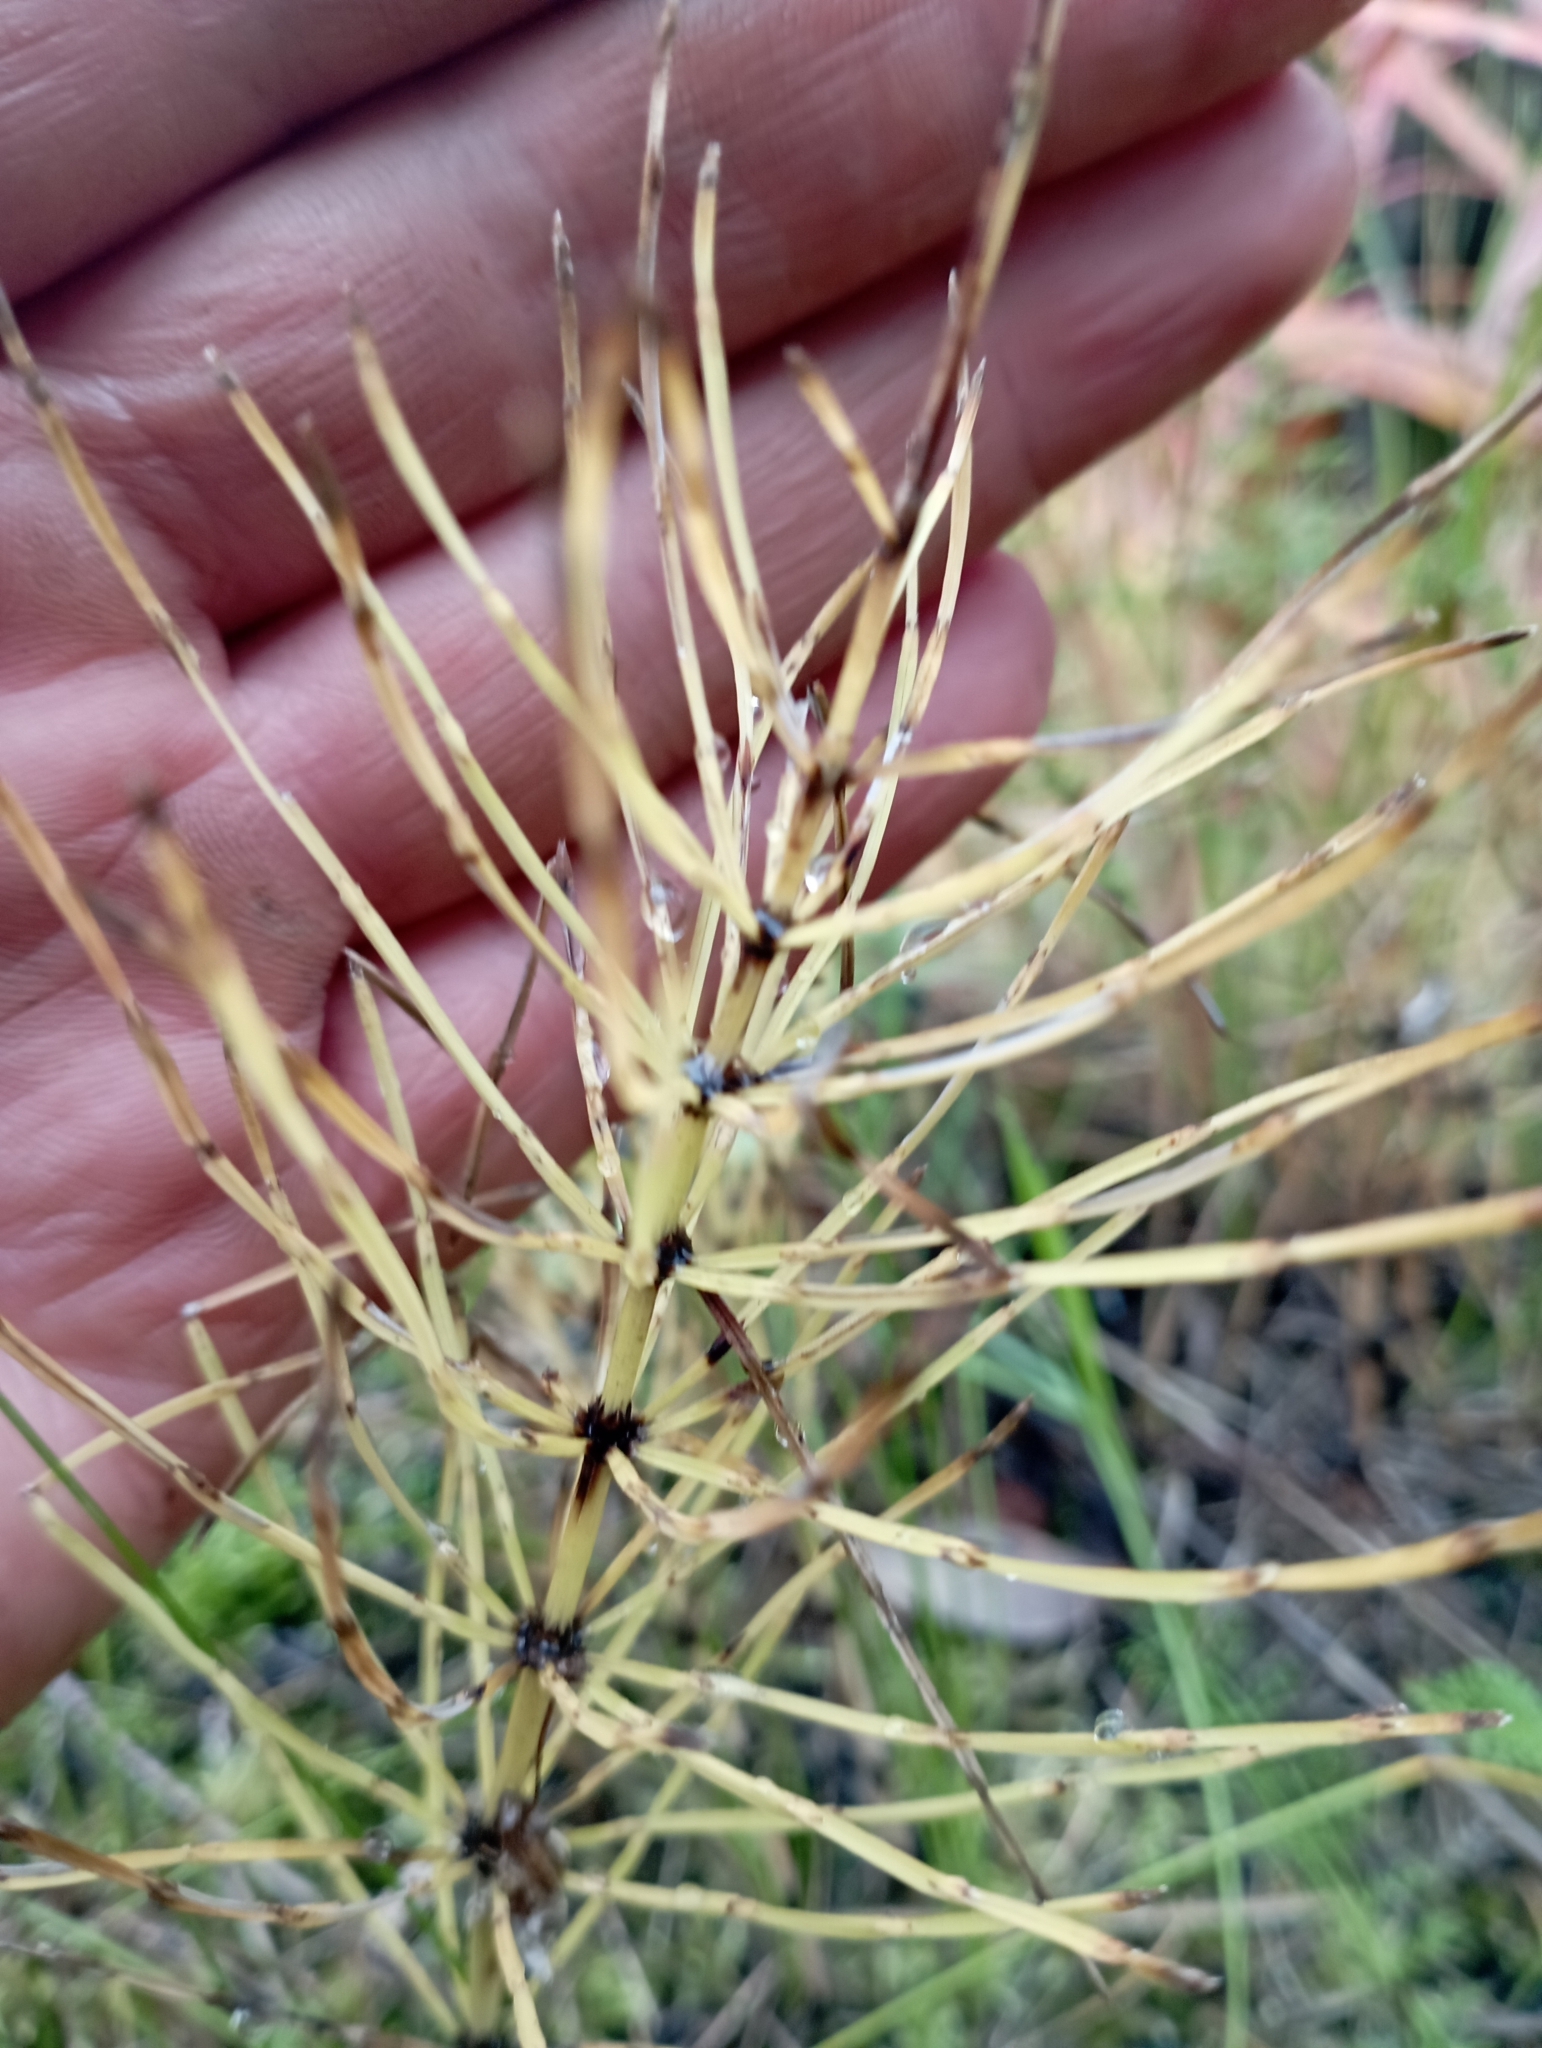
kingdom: Plantae
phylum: Tracheophyta
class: Polypodiopsida
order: Equisetales
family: Equisetaceae
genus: Equisetum
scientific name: Equisetum arvense
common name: Field horsetail
